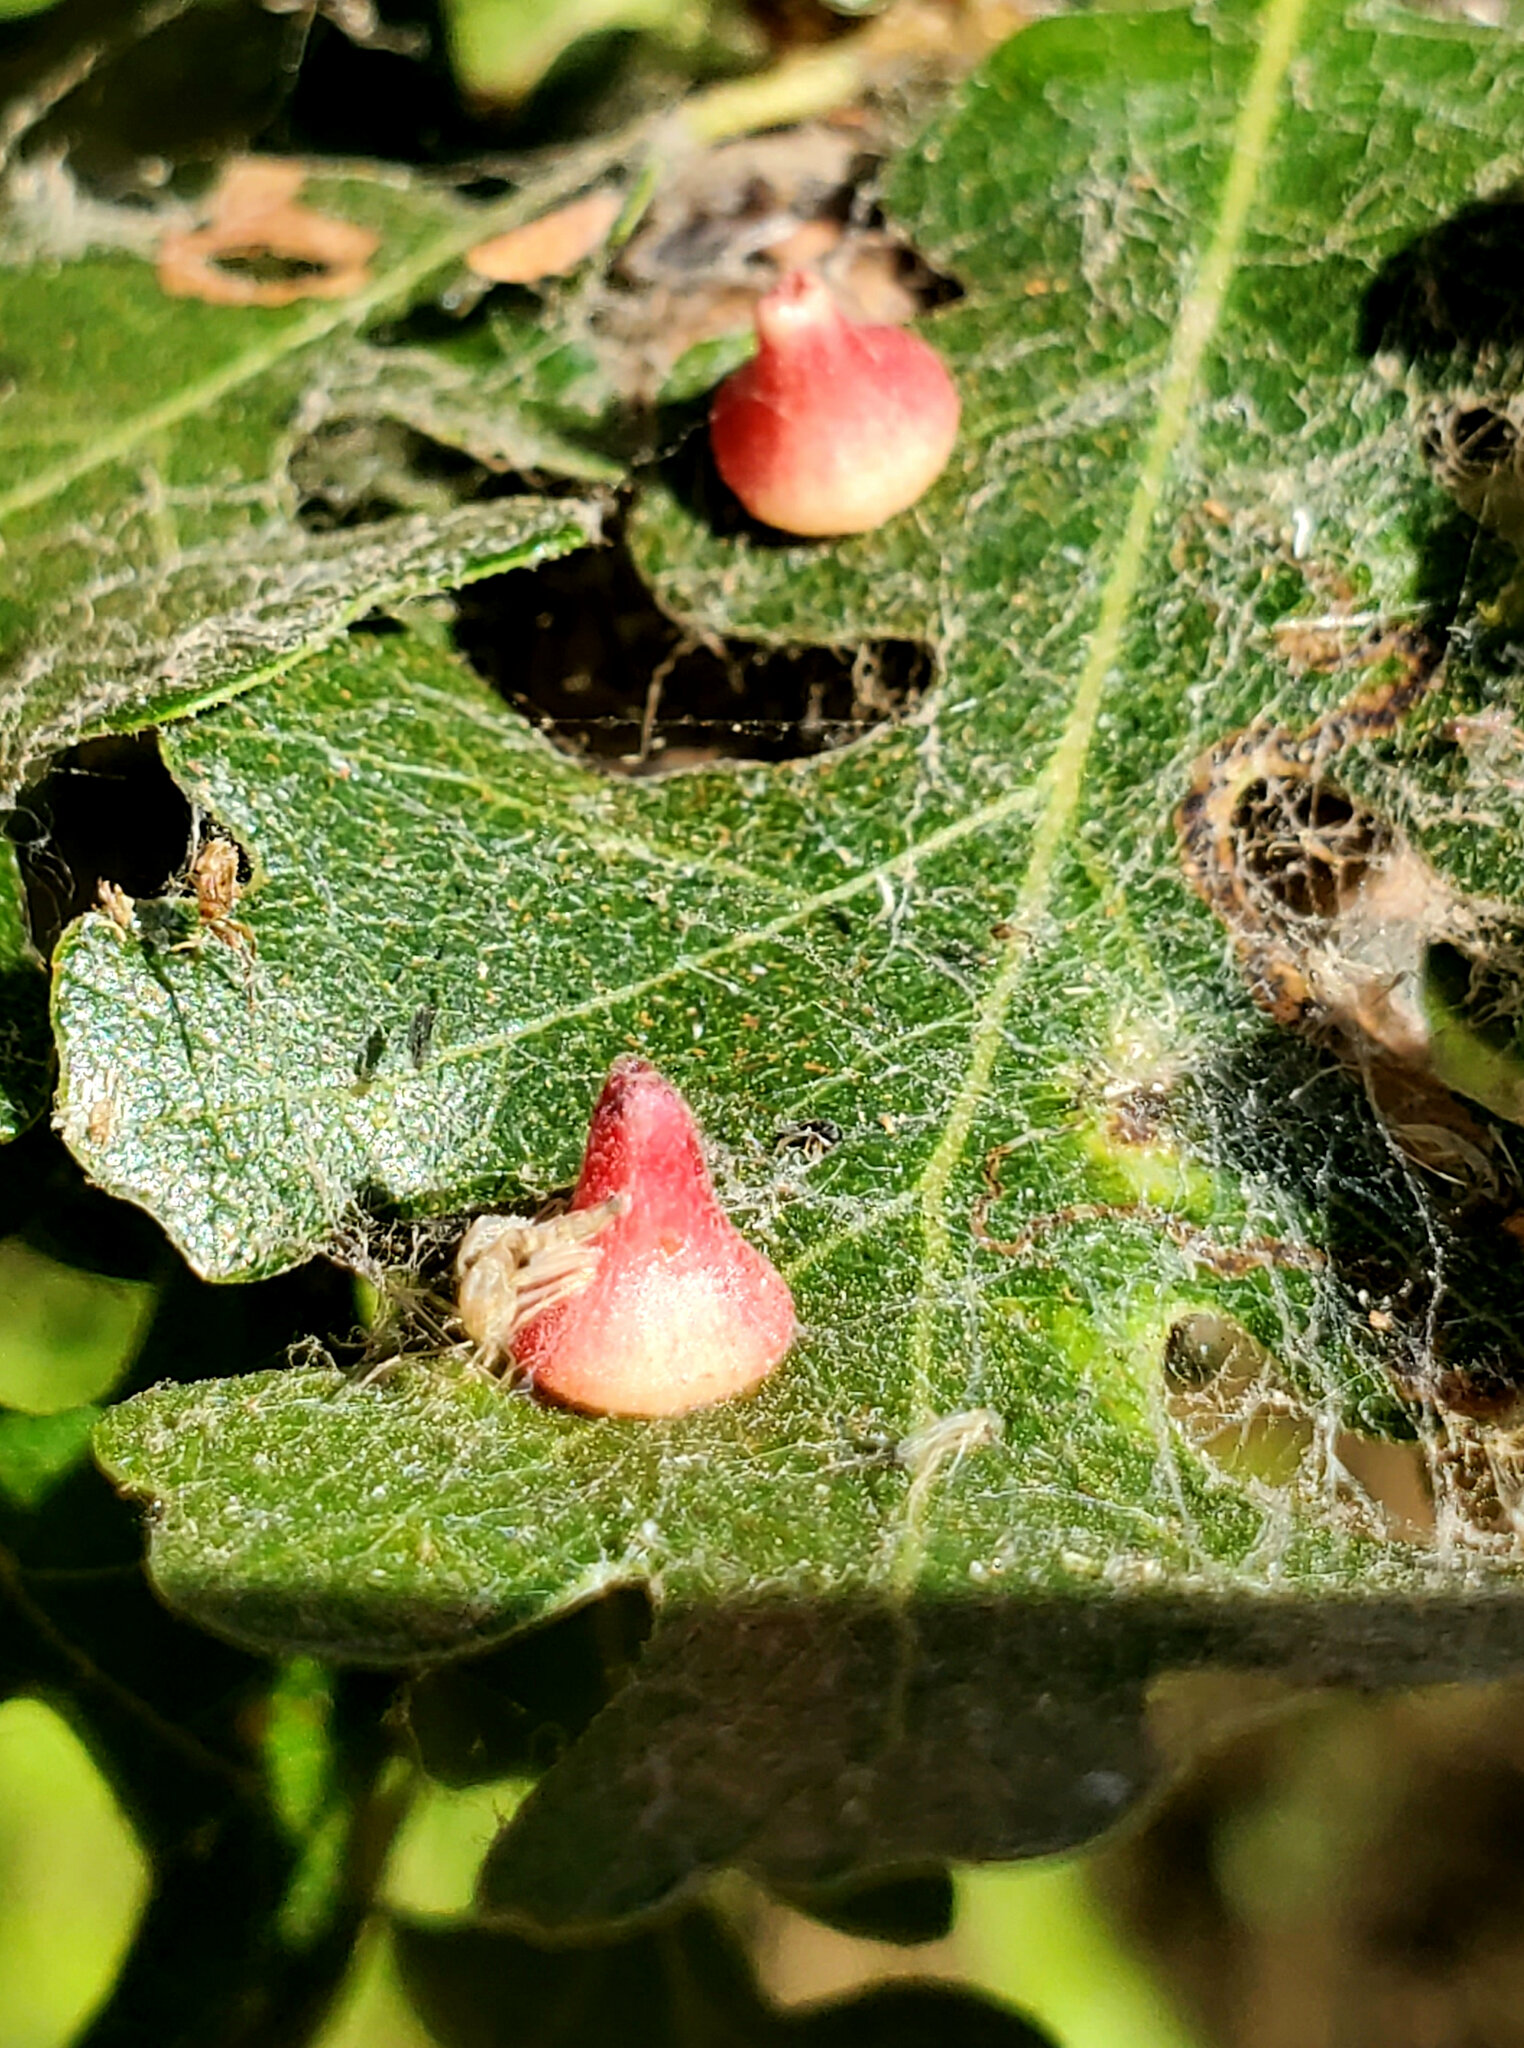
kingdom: Animalia
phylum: Arthropoda
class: Insecta
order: Hymenoptera
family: Cynipidae
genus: Andricus
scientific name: Andricus
